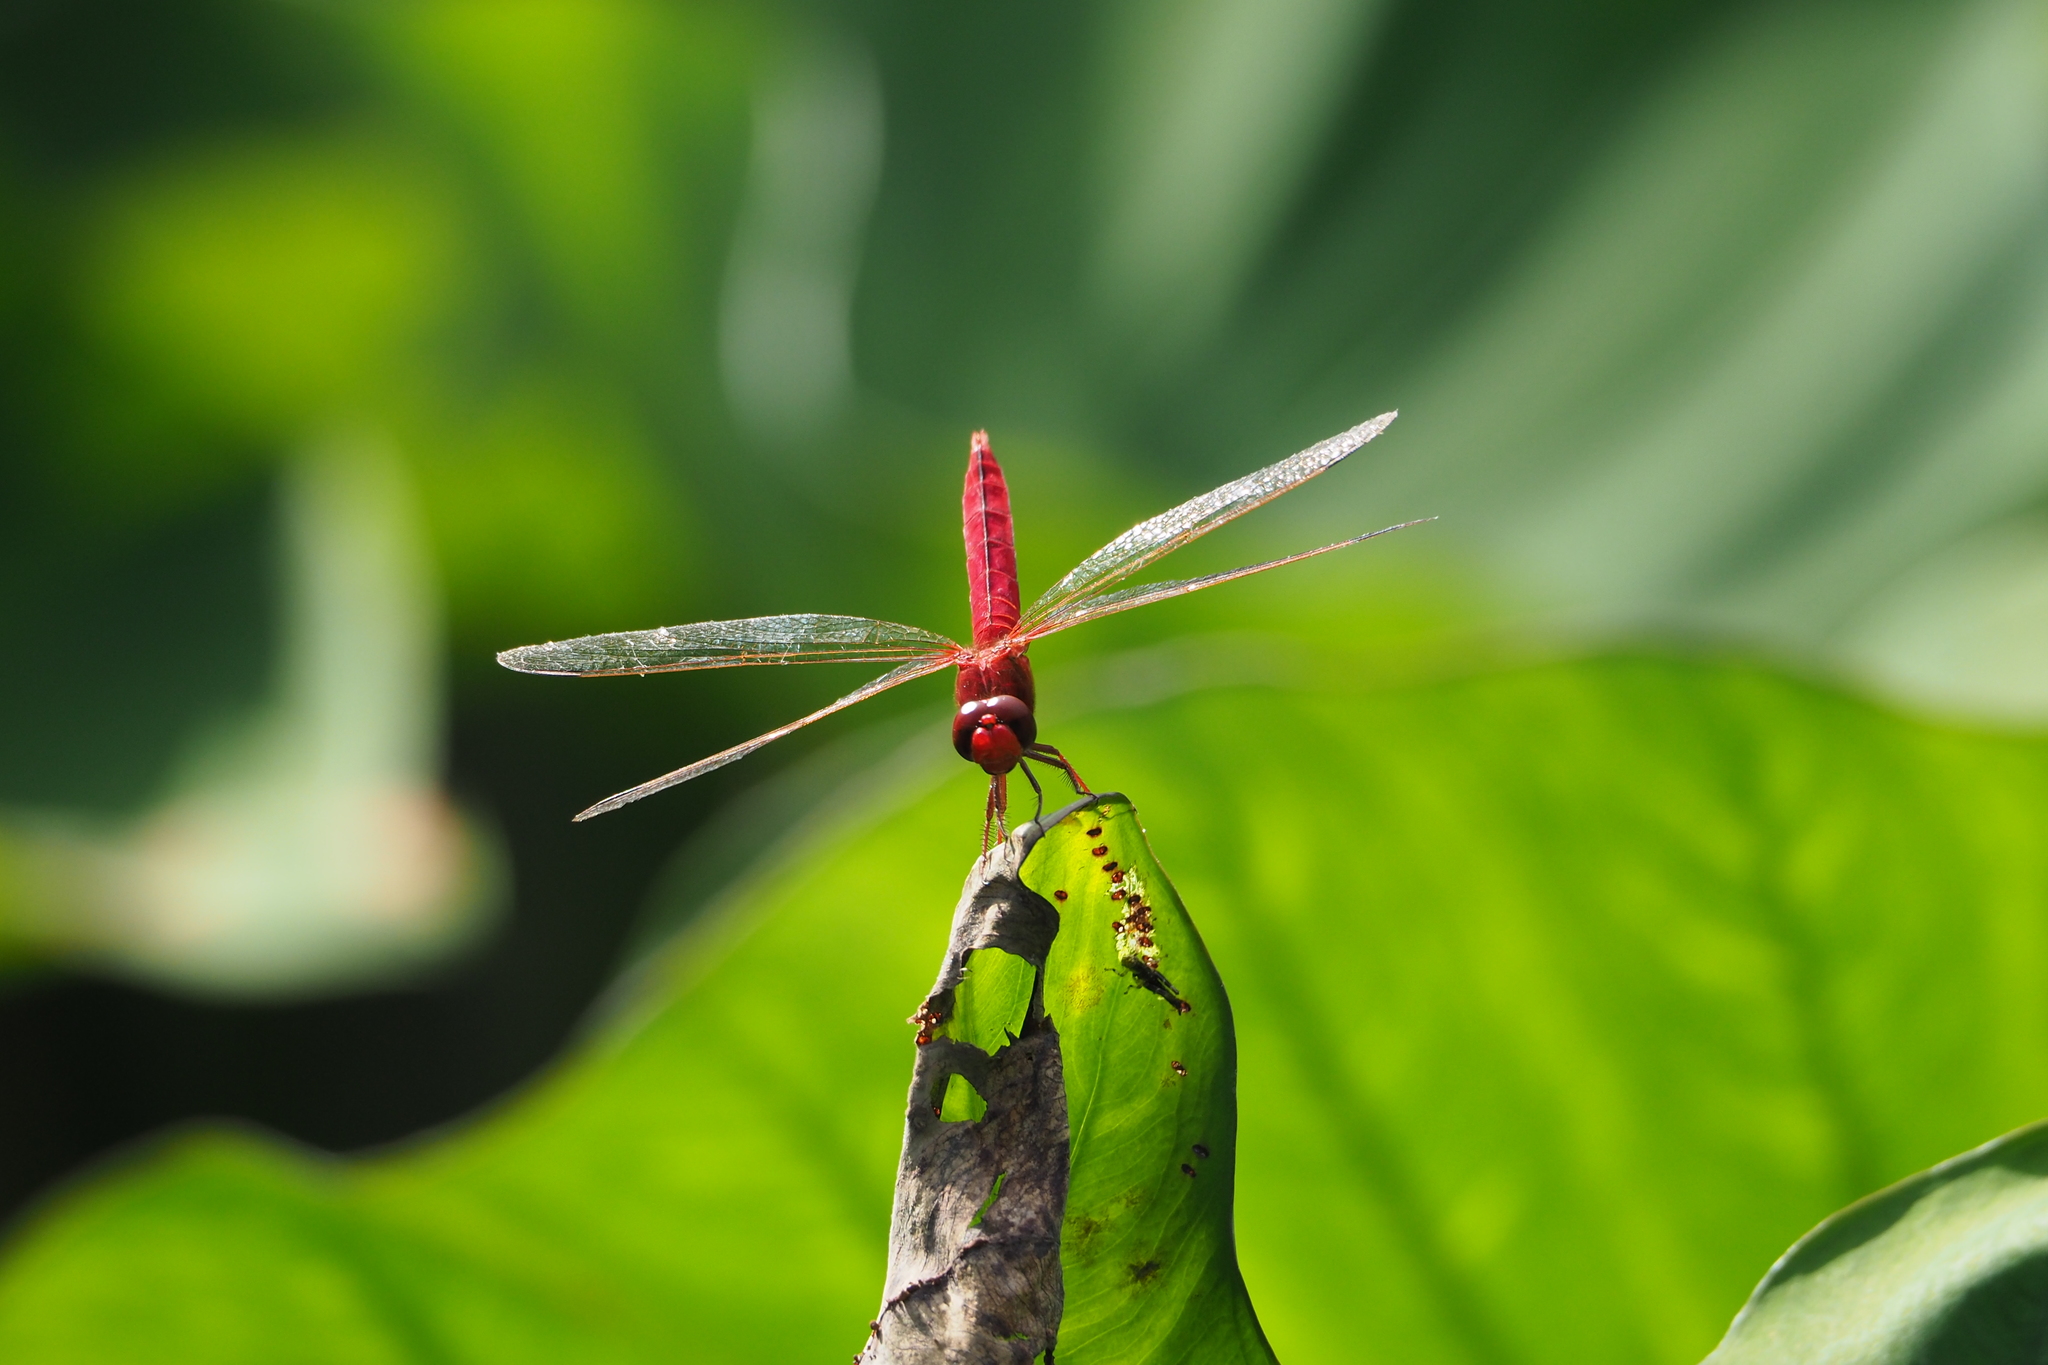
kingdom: Animalia
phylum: Arthropoda
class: Insecta
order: Odonata
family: Libellulidae
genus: Crocothemis
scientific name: Crocothemis servilia
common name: Scarlet skimmer
